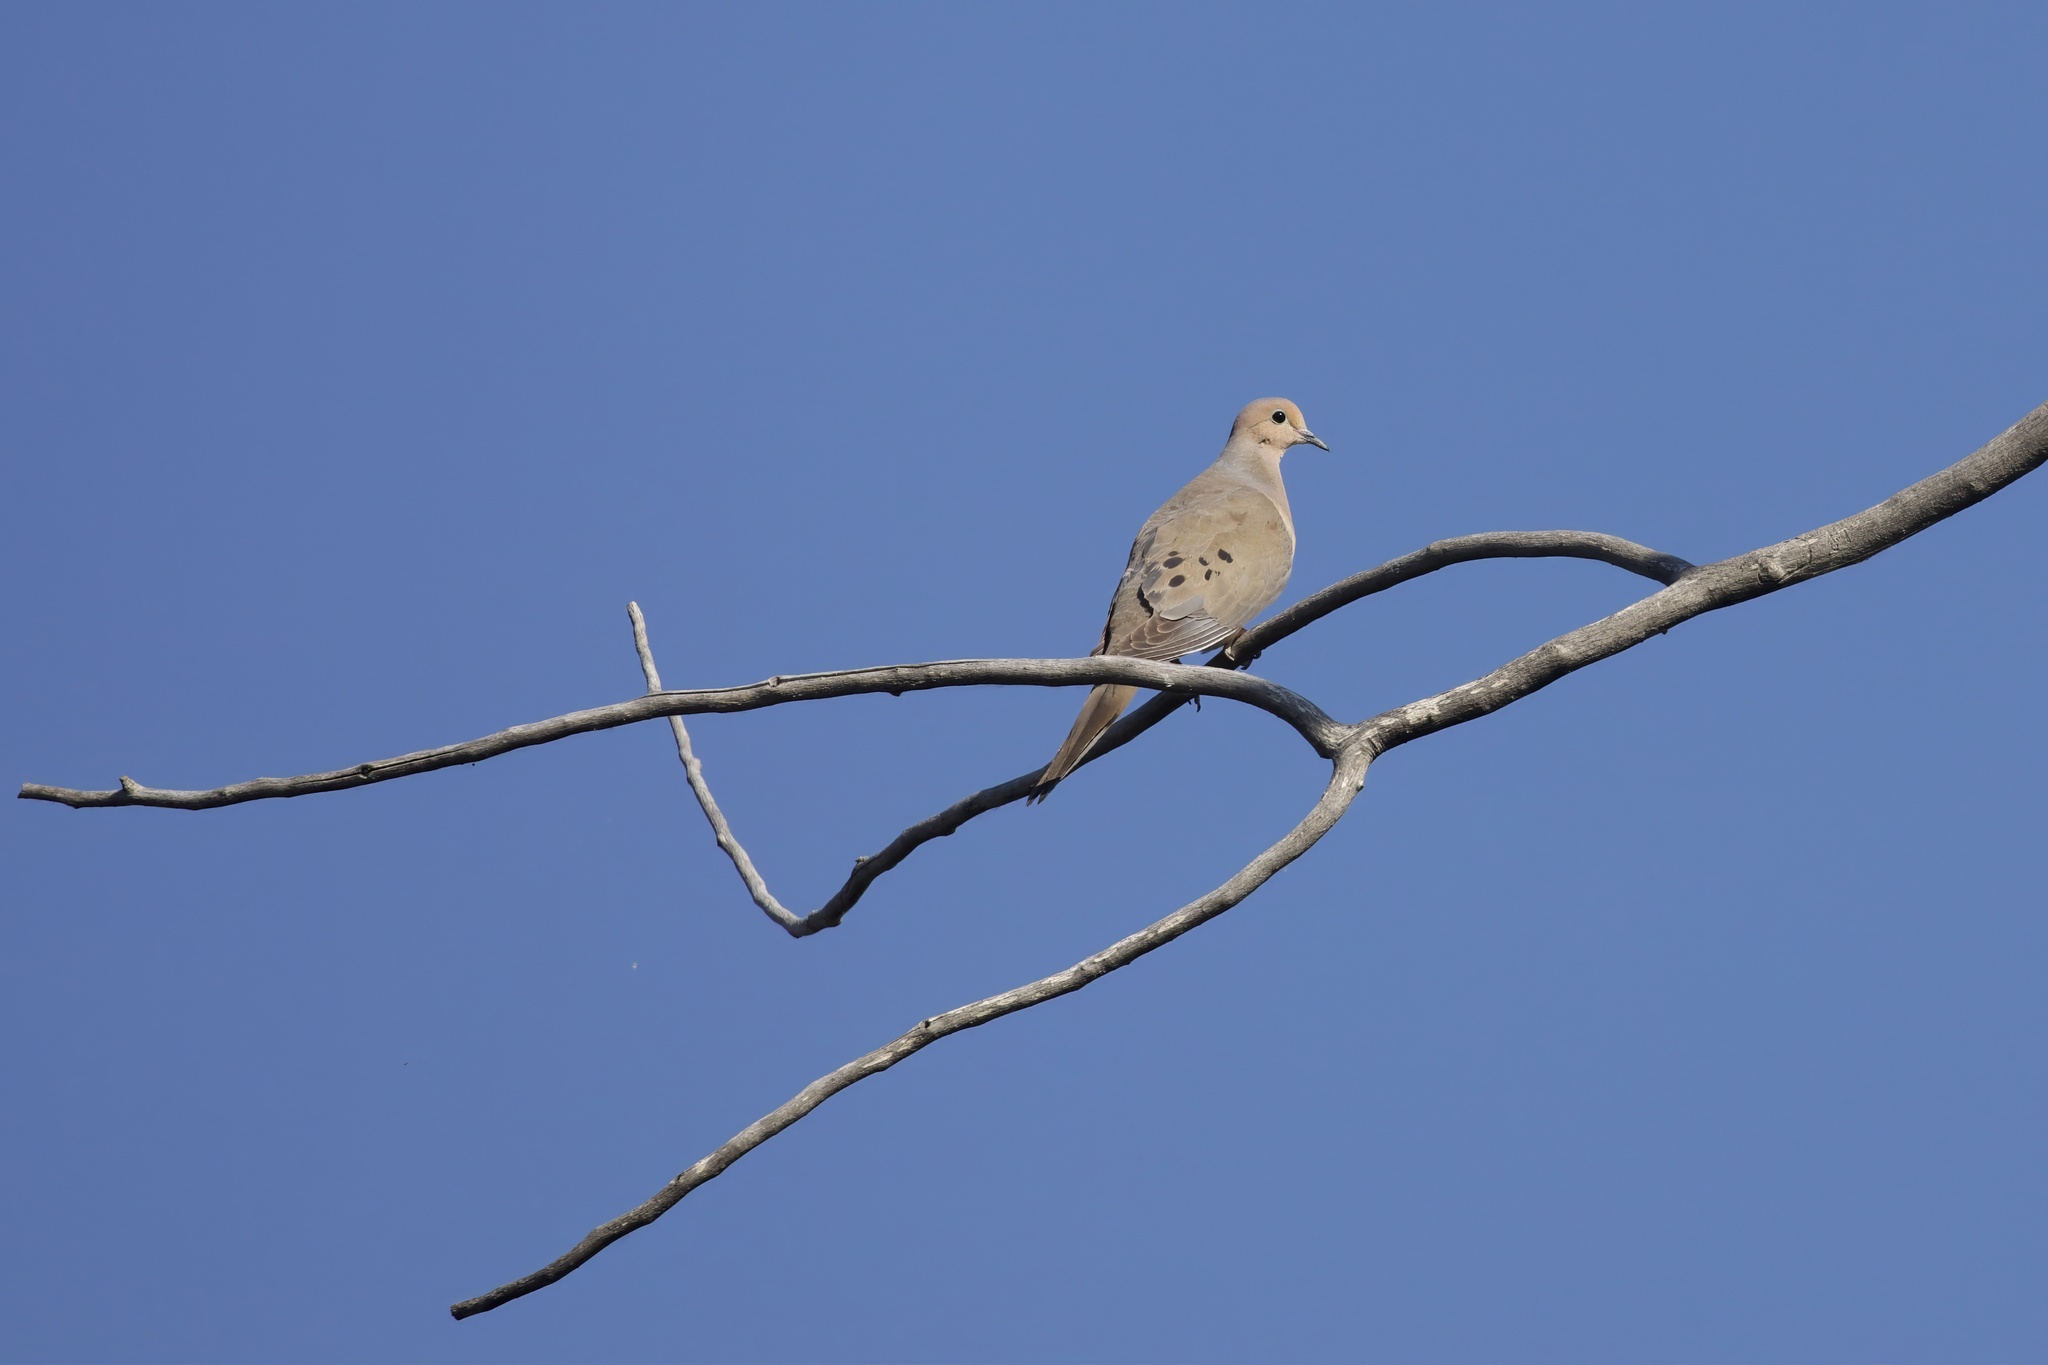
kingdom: Animalia
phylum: Chordata
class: Aves
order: Columbiformes
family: Columbidae
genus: Zenaida
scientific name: Zenaida macroura
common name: Mourning dove
